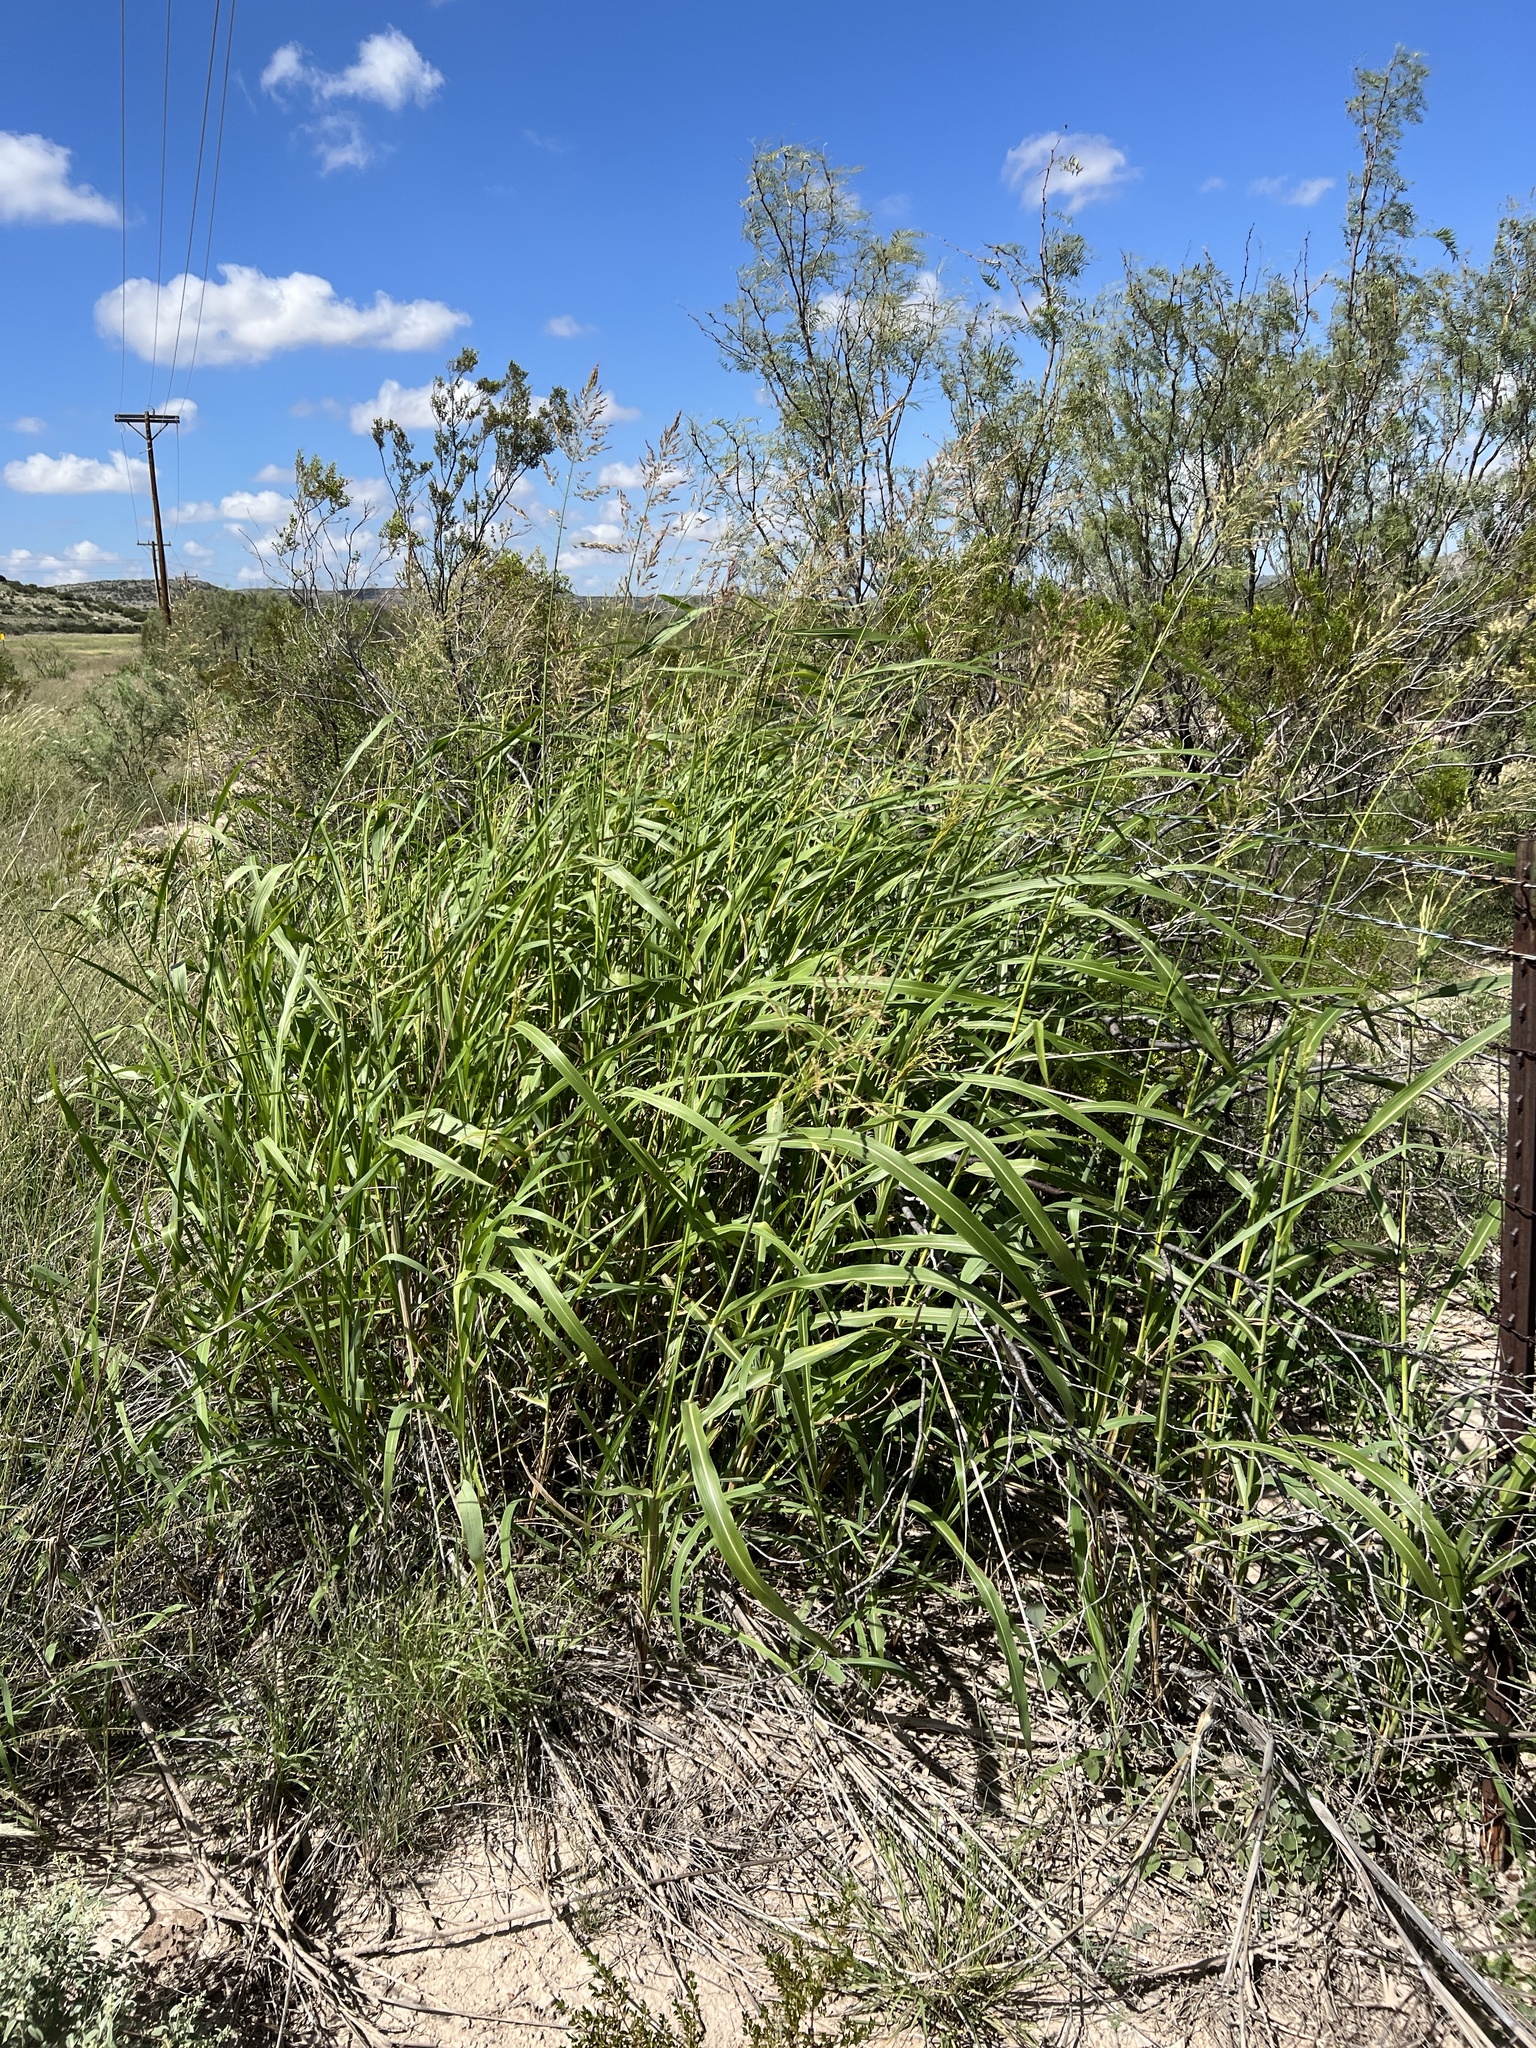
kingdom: Plantae
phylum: Tracheophyta
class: Liliopsida
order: Poales
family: Poaceae
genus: Sorghum
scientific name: Sorghum halepense
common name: Johnson-grass
